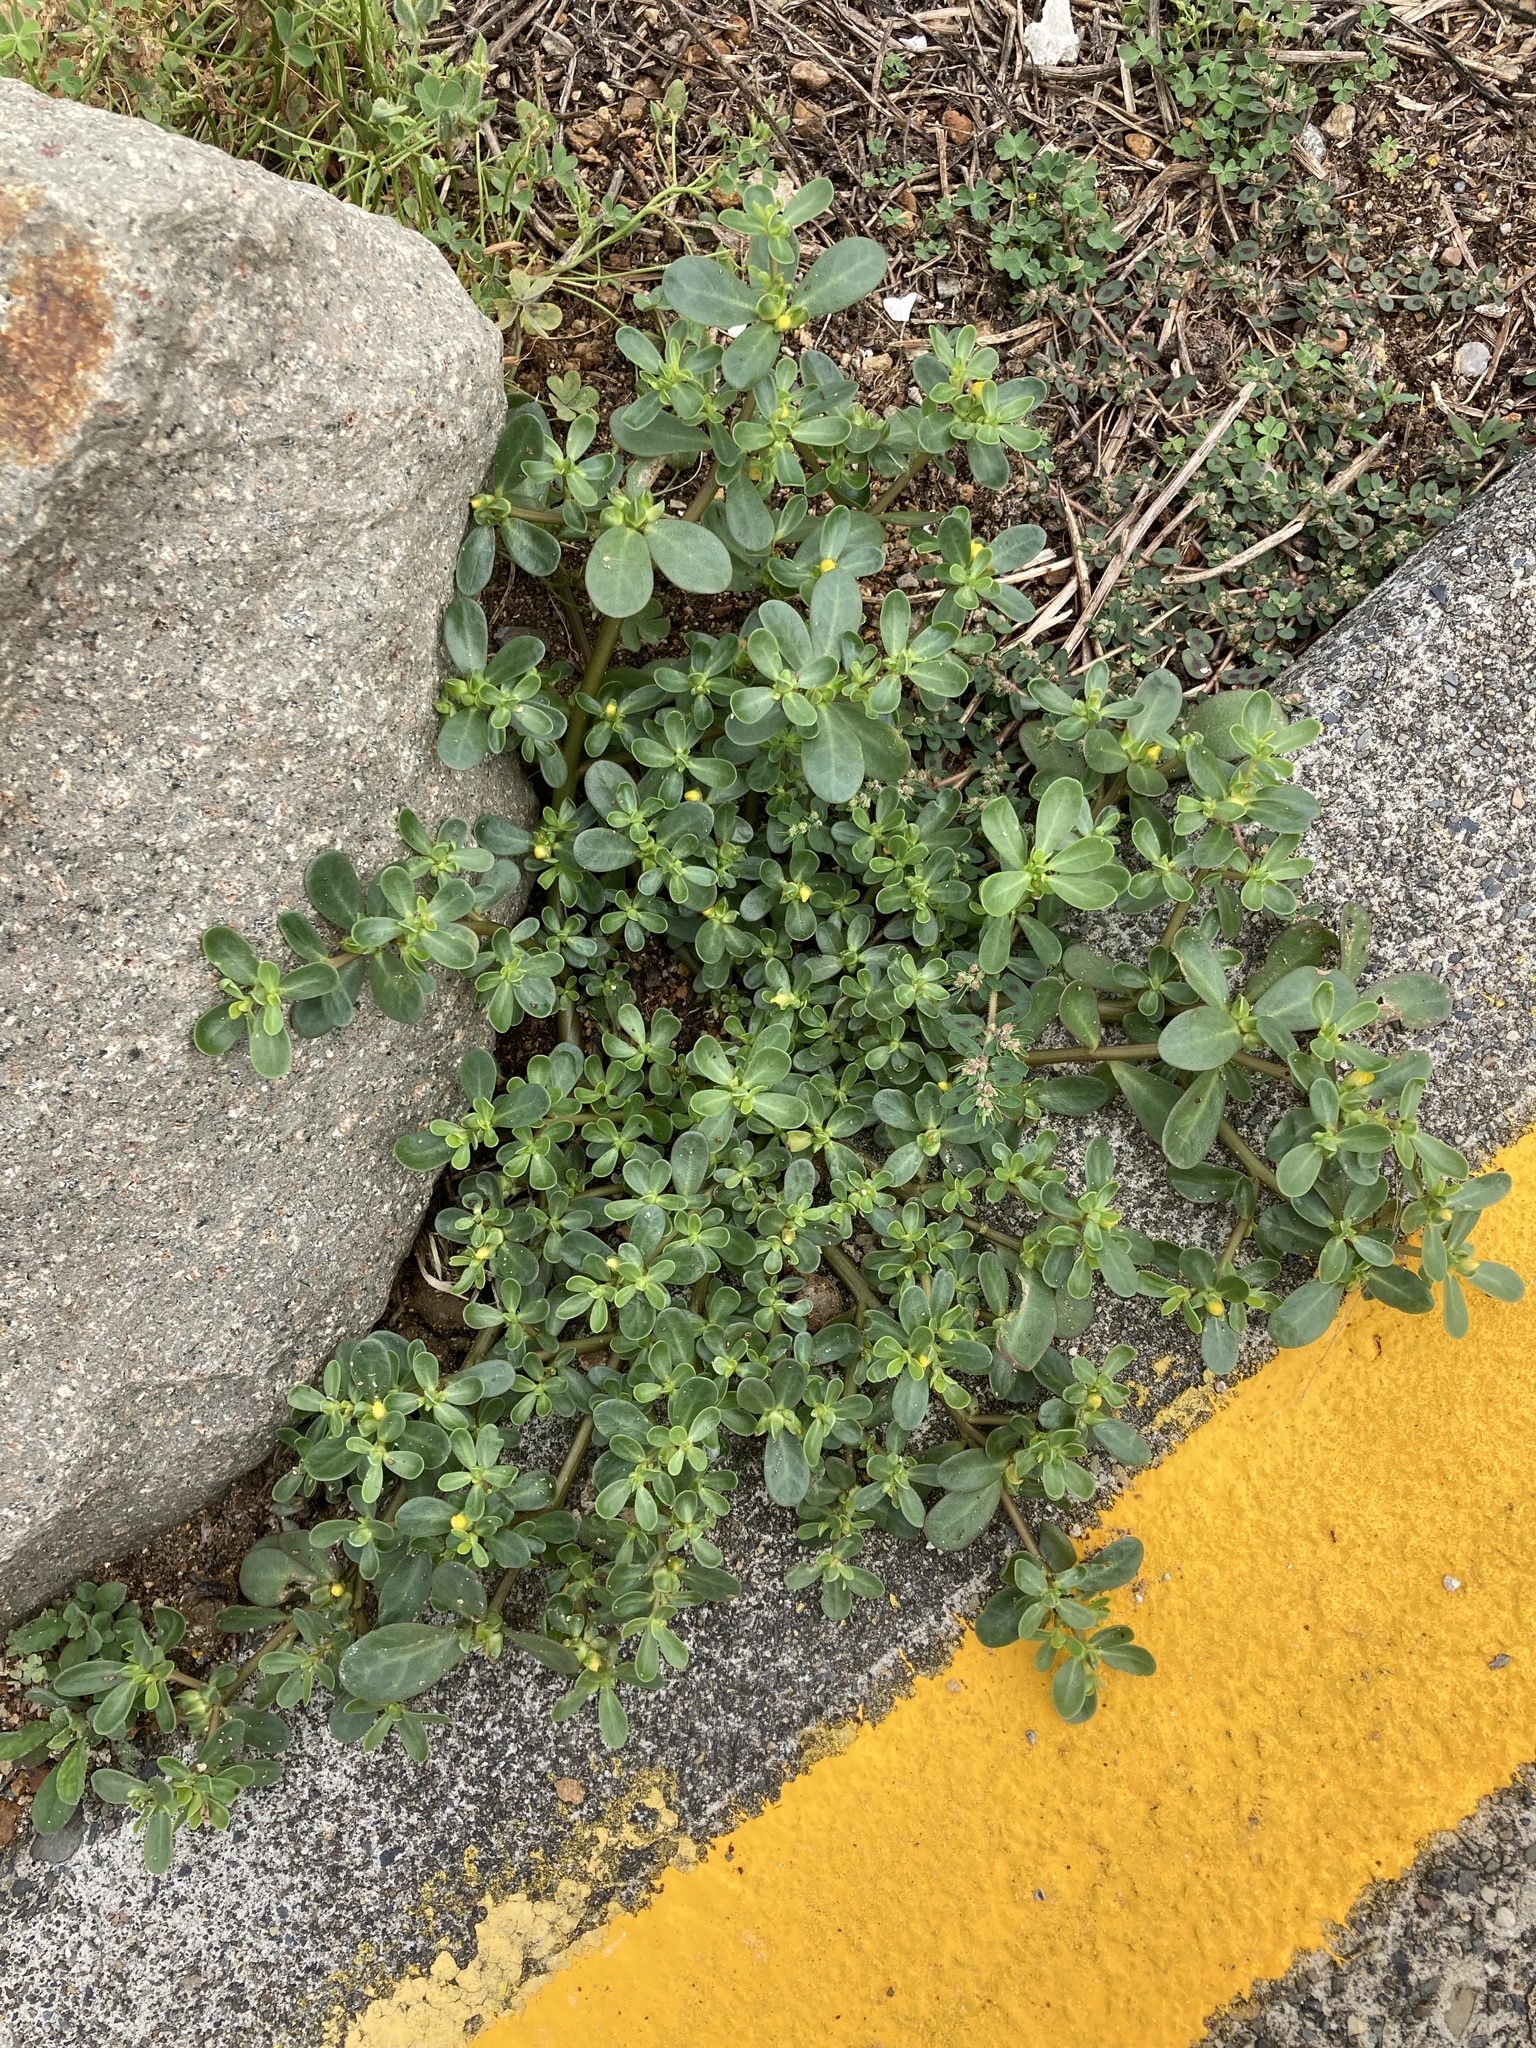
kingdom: Plantae
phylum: Tracheophyta
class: Magnoliopsida
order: Caryophyllales
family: Portulacaceae
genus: Portulaca
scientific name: Portulaca oleracea
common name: Common purslane
